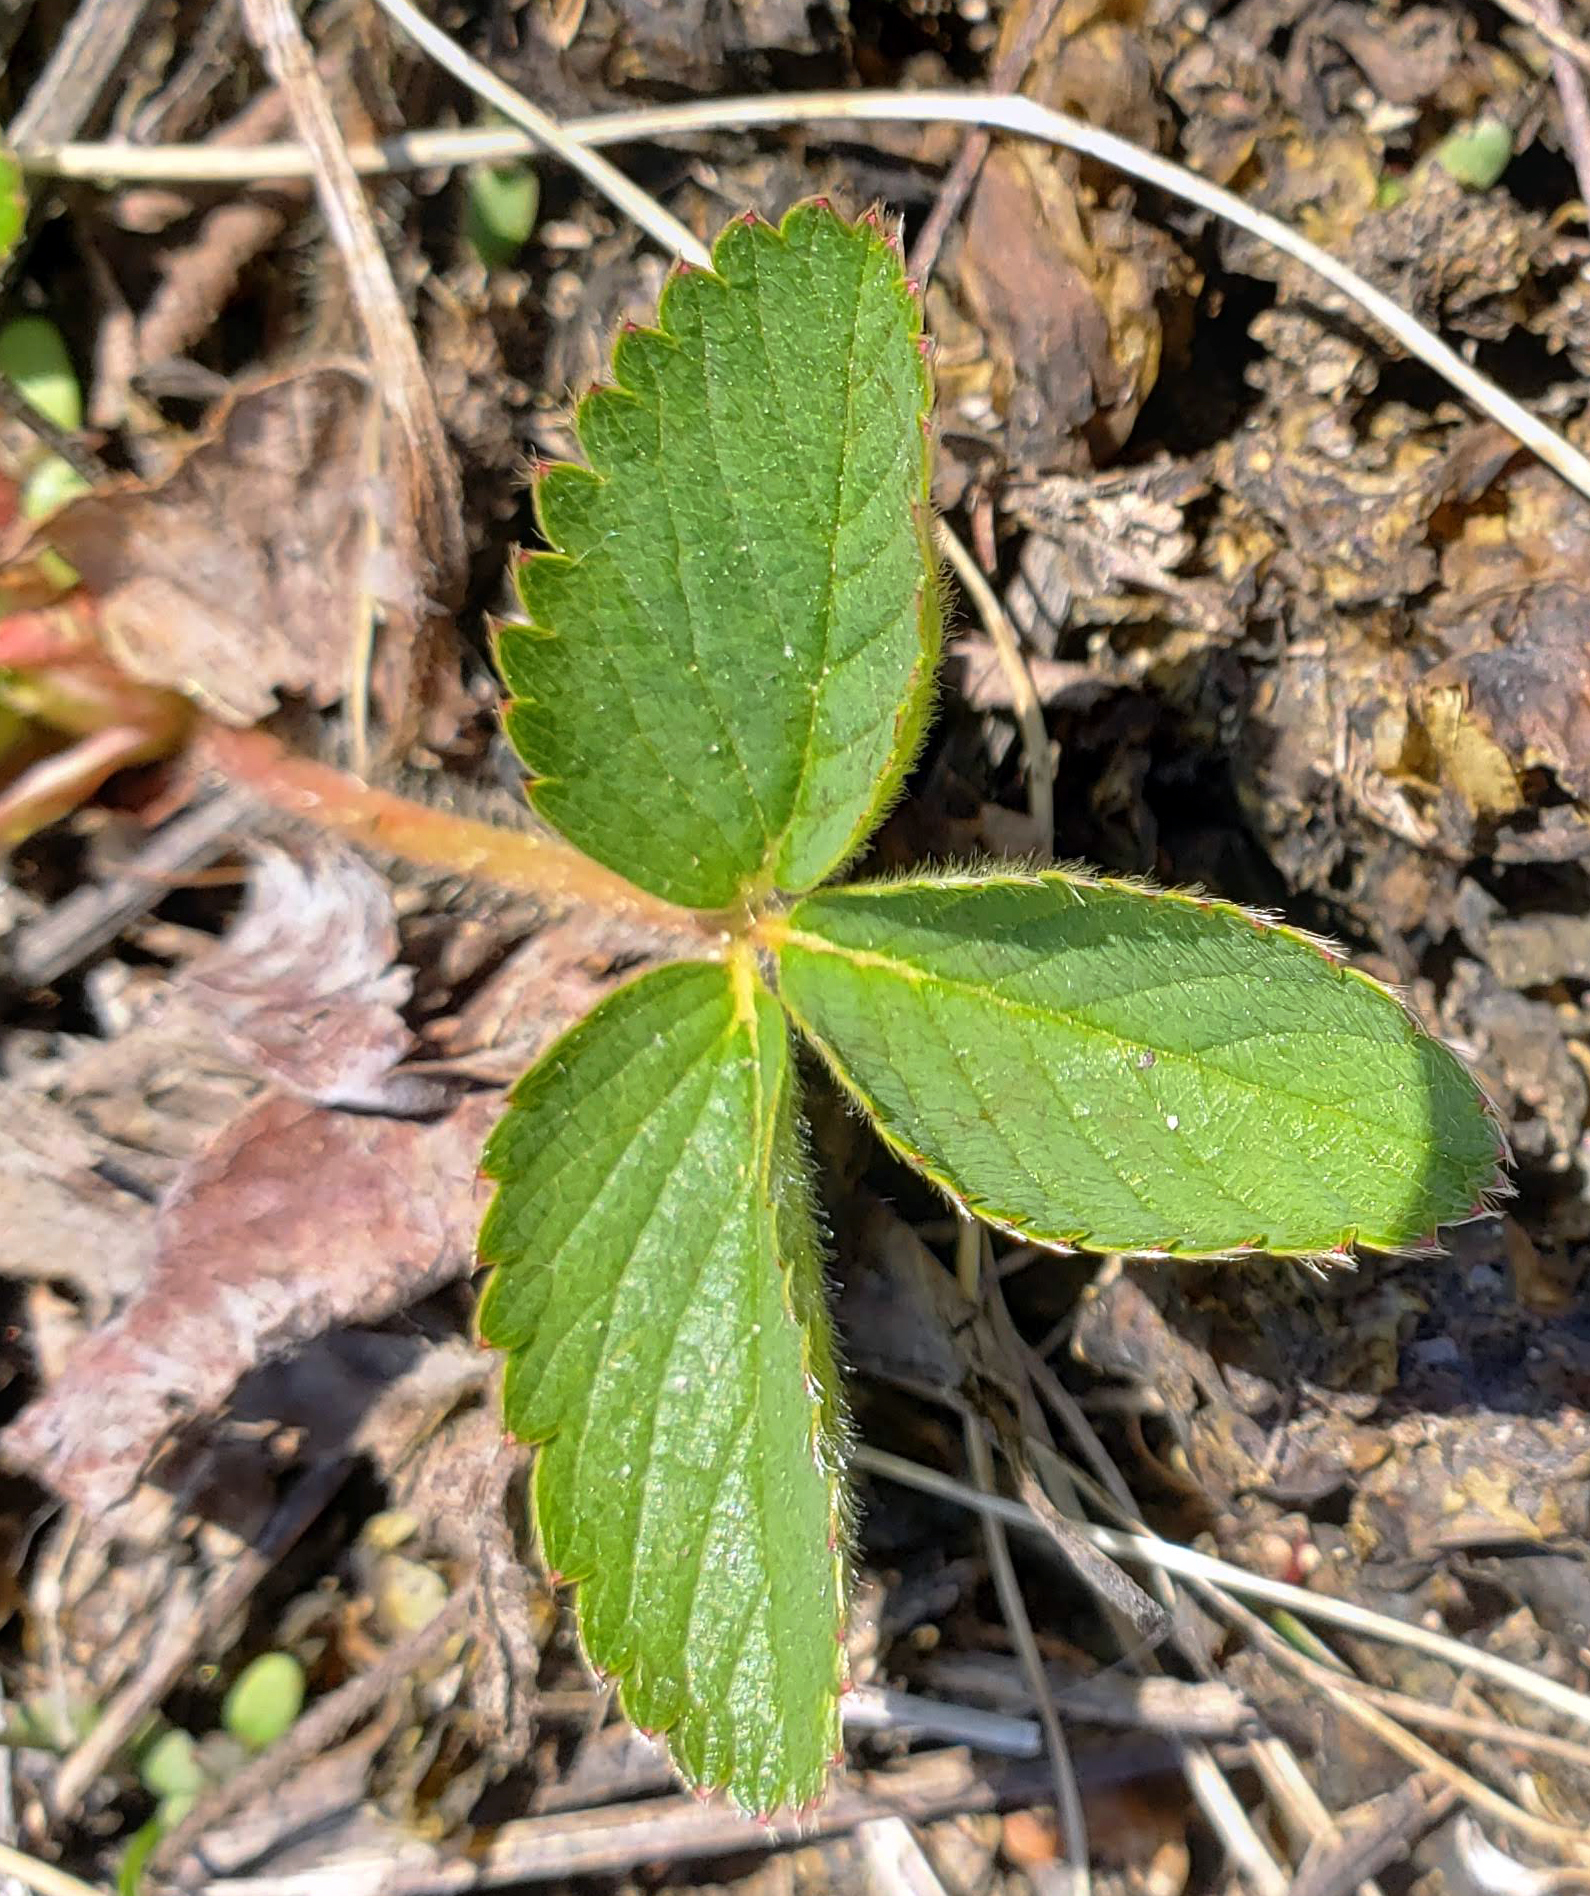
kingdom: Plantae
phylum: Tracheophyta
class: Magnoliopsida
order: Rosales
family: Rosaceae
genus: Fragaria
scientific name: Fragaria virginiana
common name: Thickleaved wild strawberry
